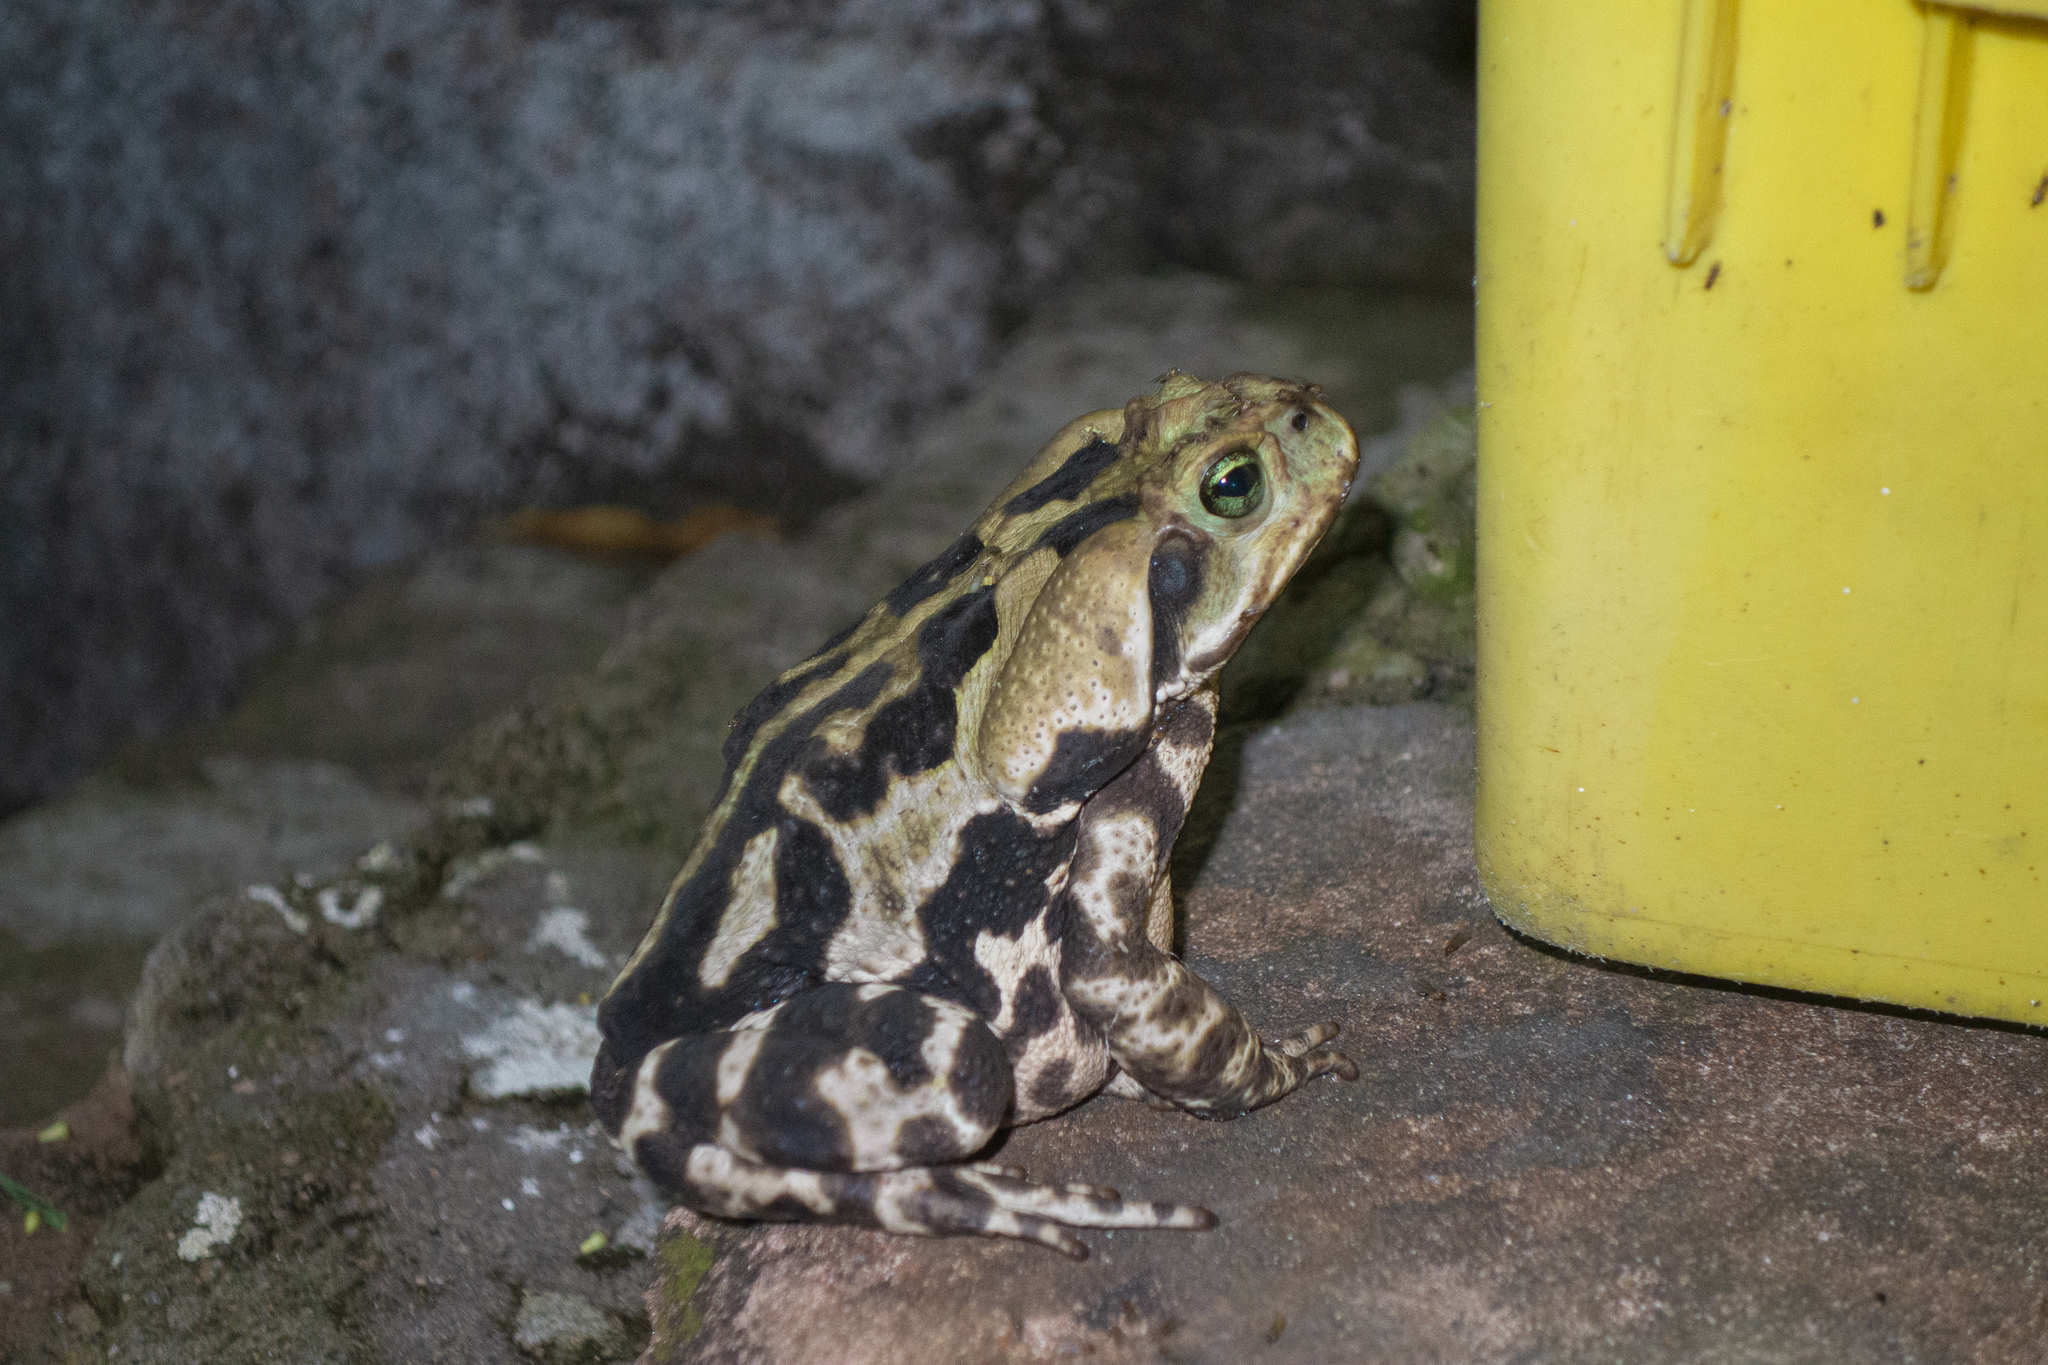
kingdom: Animalia
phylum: Chordata
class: Amphibia
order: Anura
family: Bufonidae
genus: Rhinella
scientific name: Rhinella icterica
